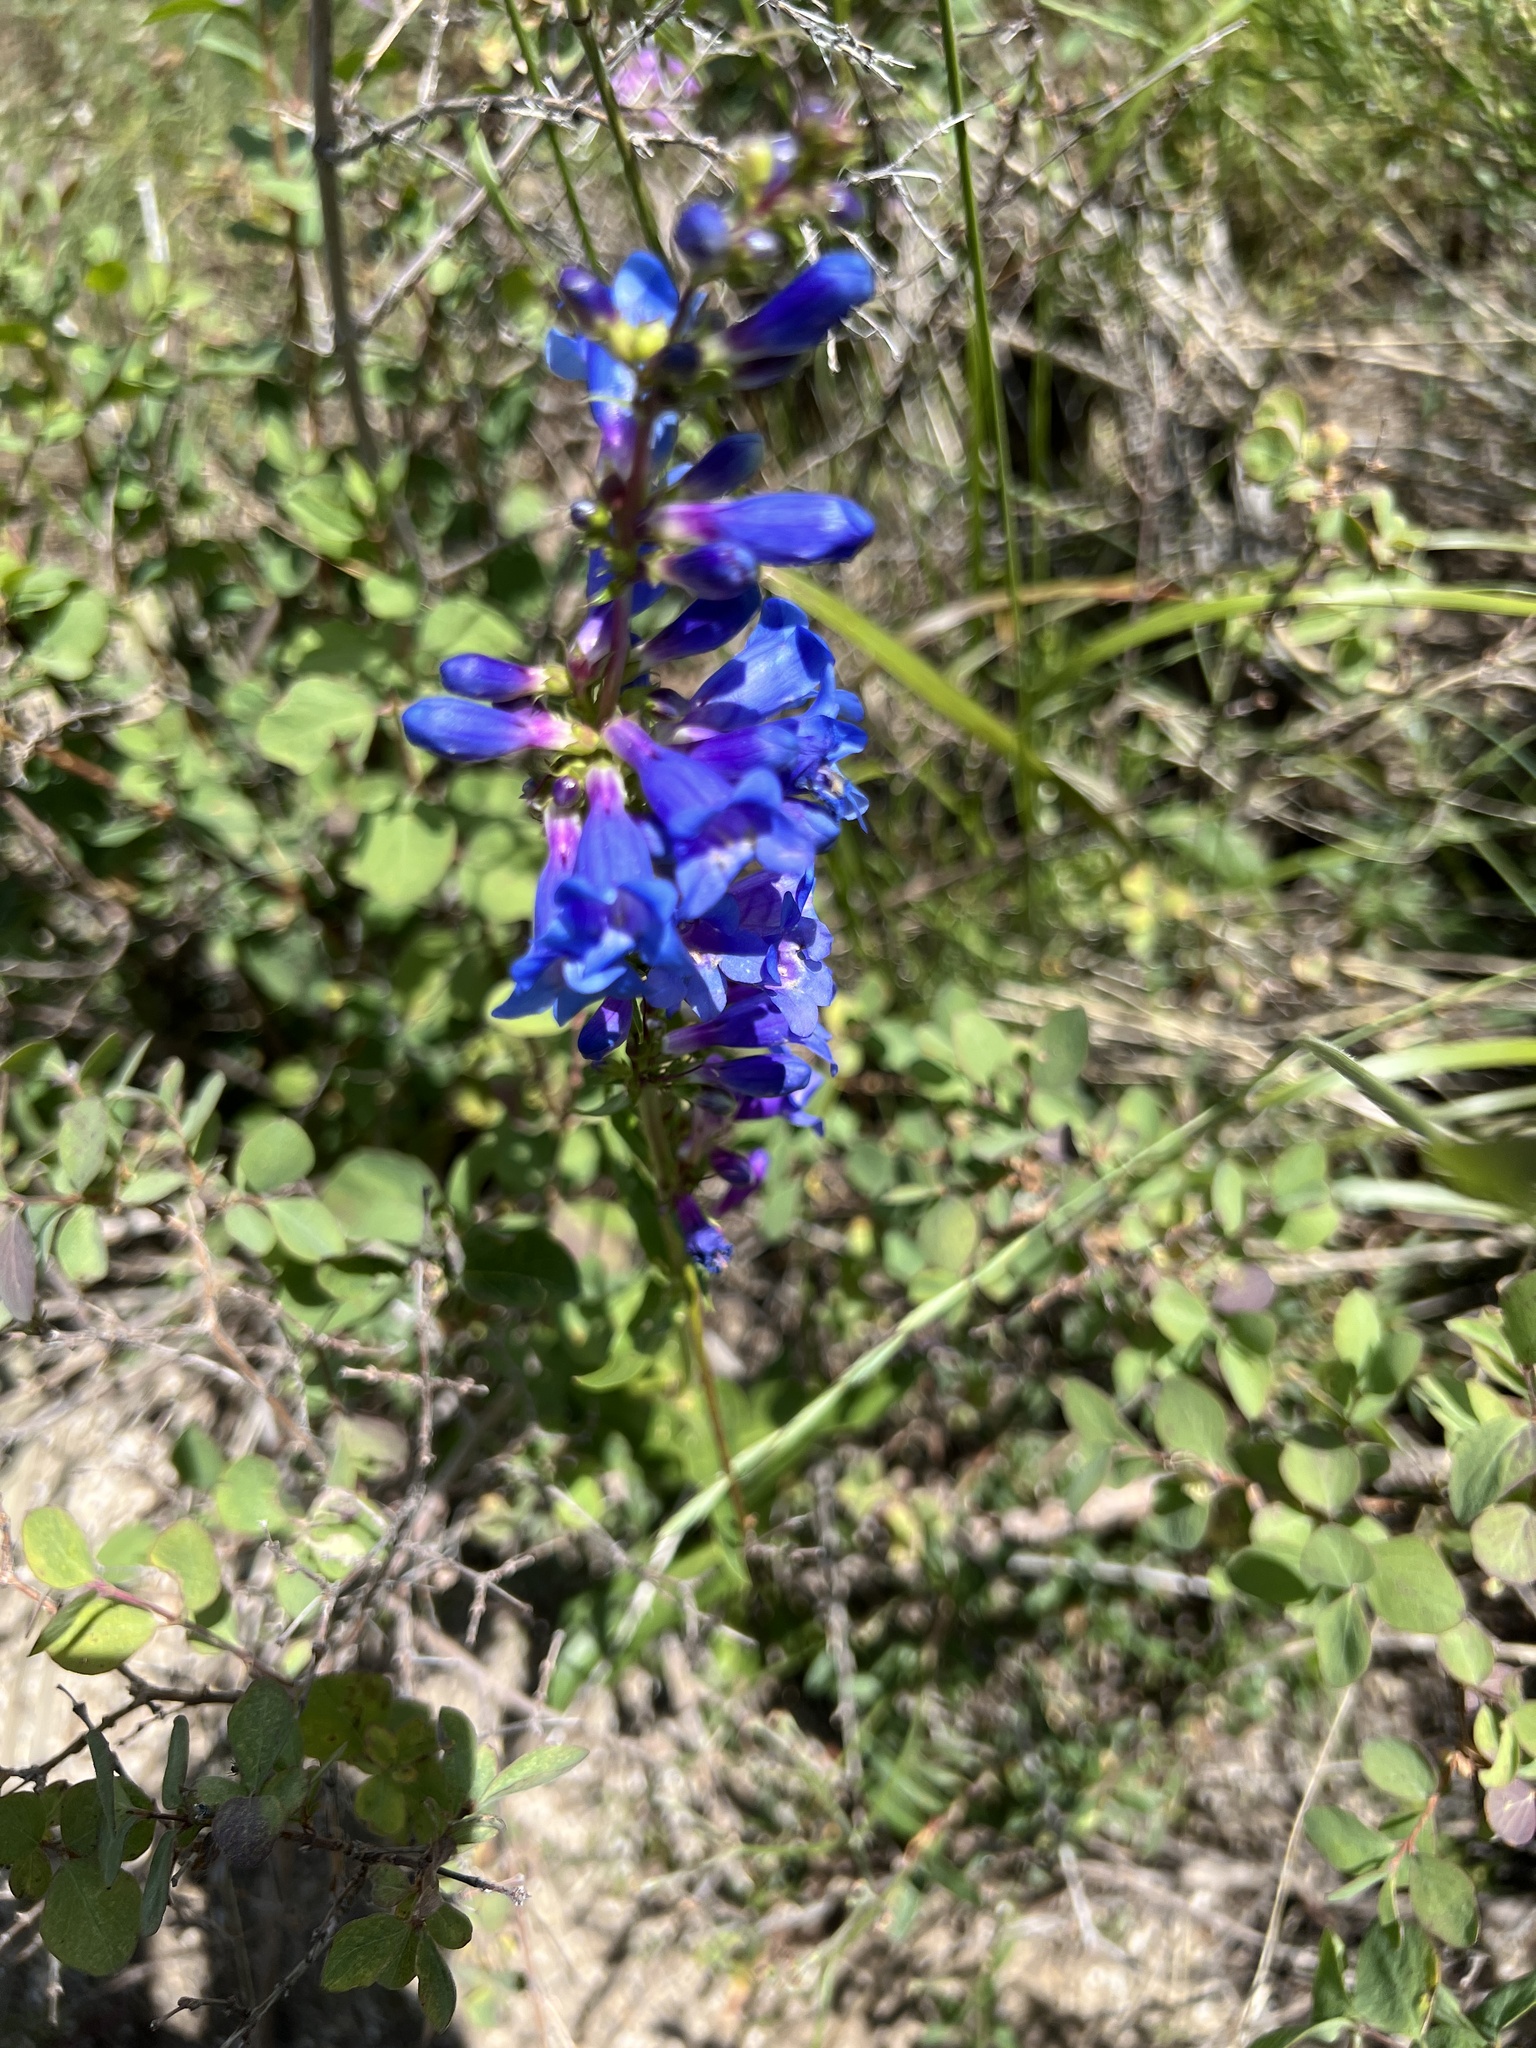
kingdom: Plantae
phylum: Tracheophyta
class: Magnoliopsida
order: Lamiales
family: Plantaginaceae
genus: Penstemon
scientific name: Penstemon cyananthus
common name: Wasatch penstemon
